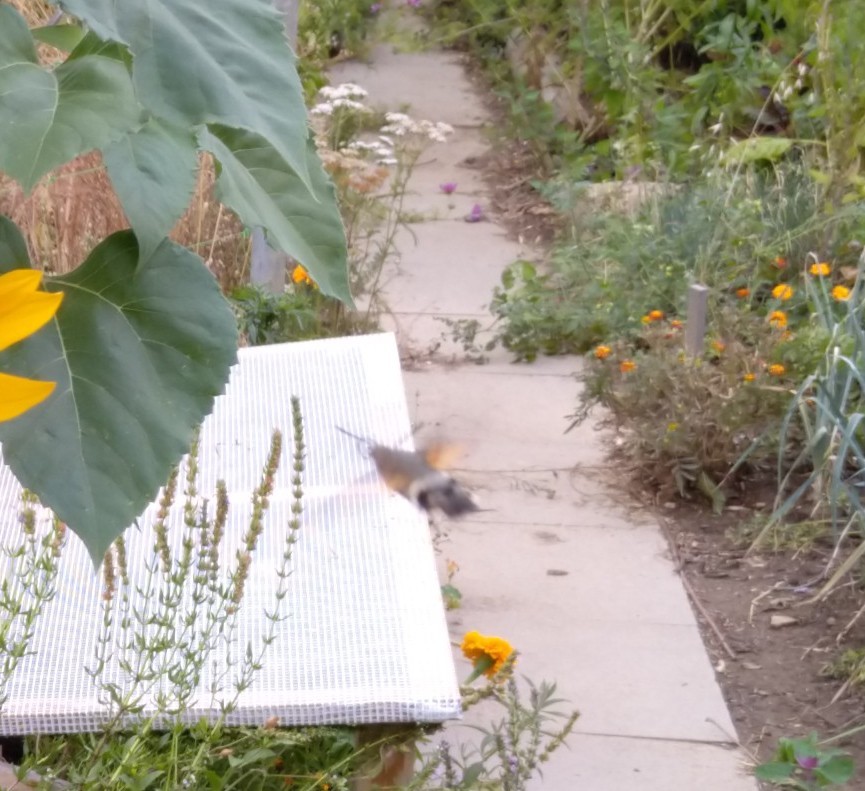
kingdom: Animalia
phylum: Arthropoda
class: Insecta
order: Lepidoptera
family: Sphingidae
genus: Macroglossum
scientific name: Macroglossum stellatarum
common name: Humming-bird hawk-moth
